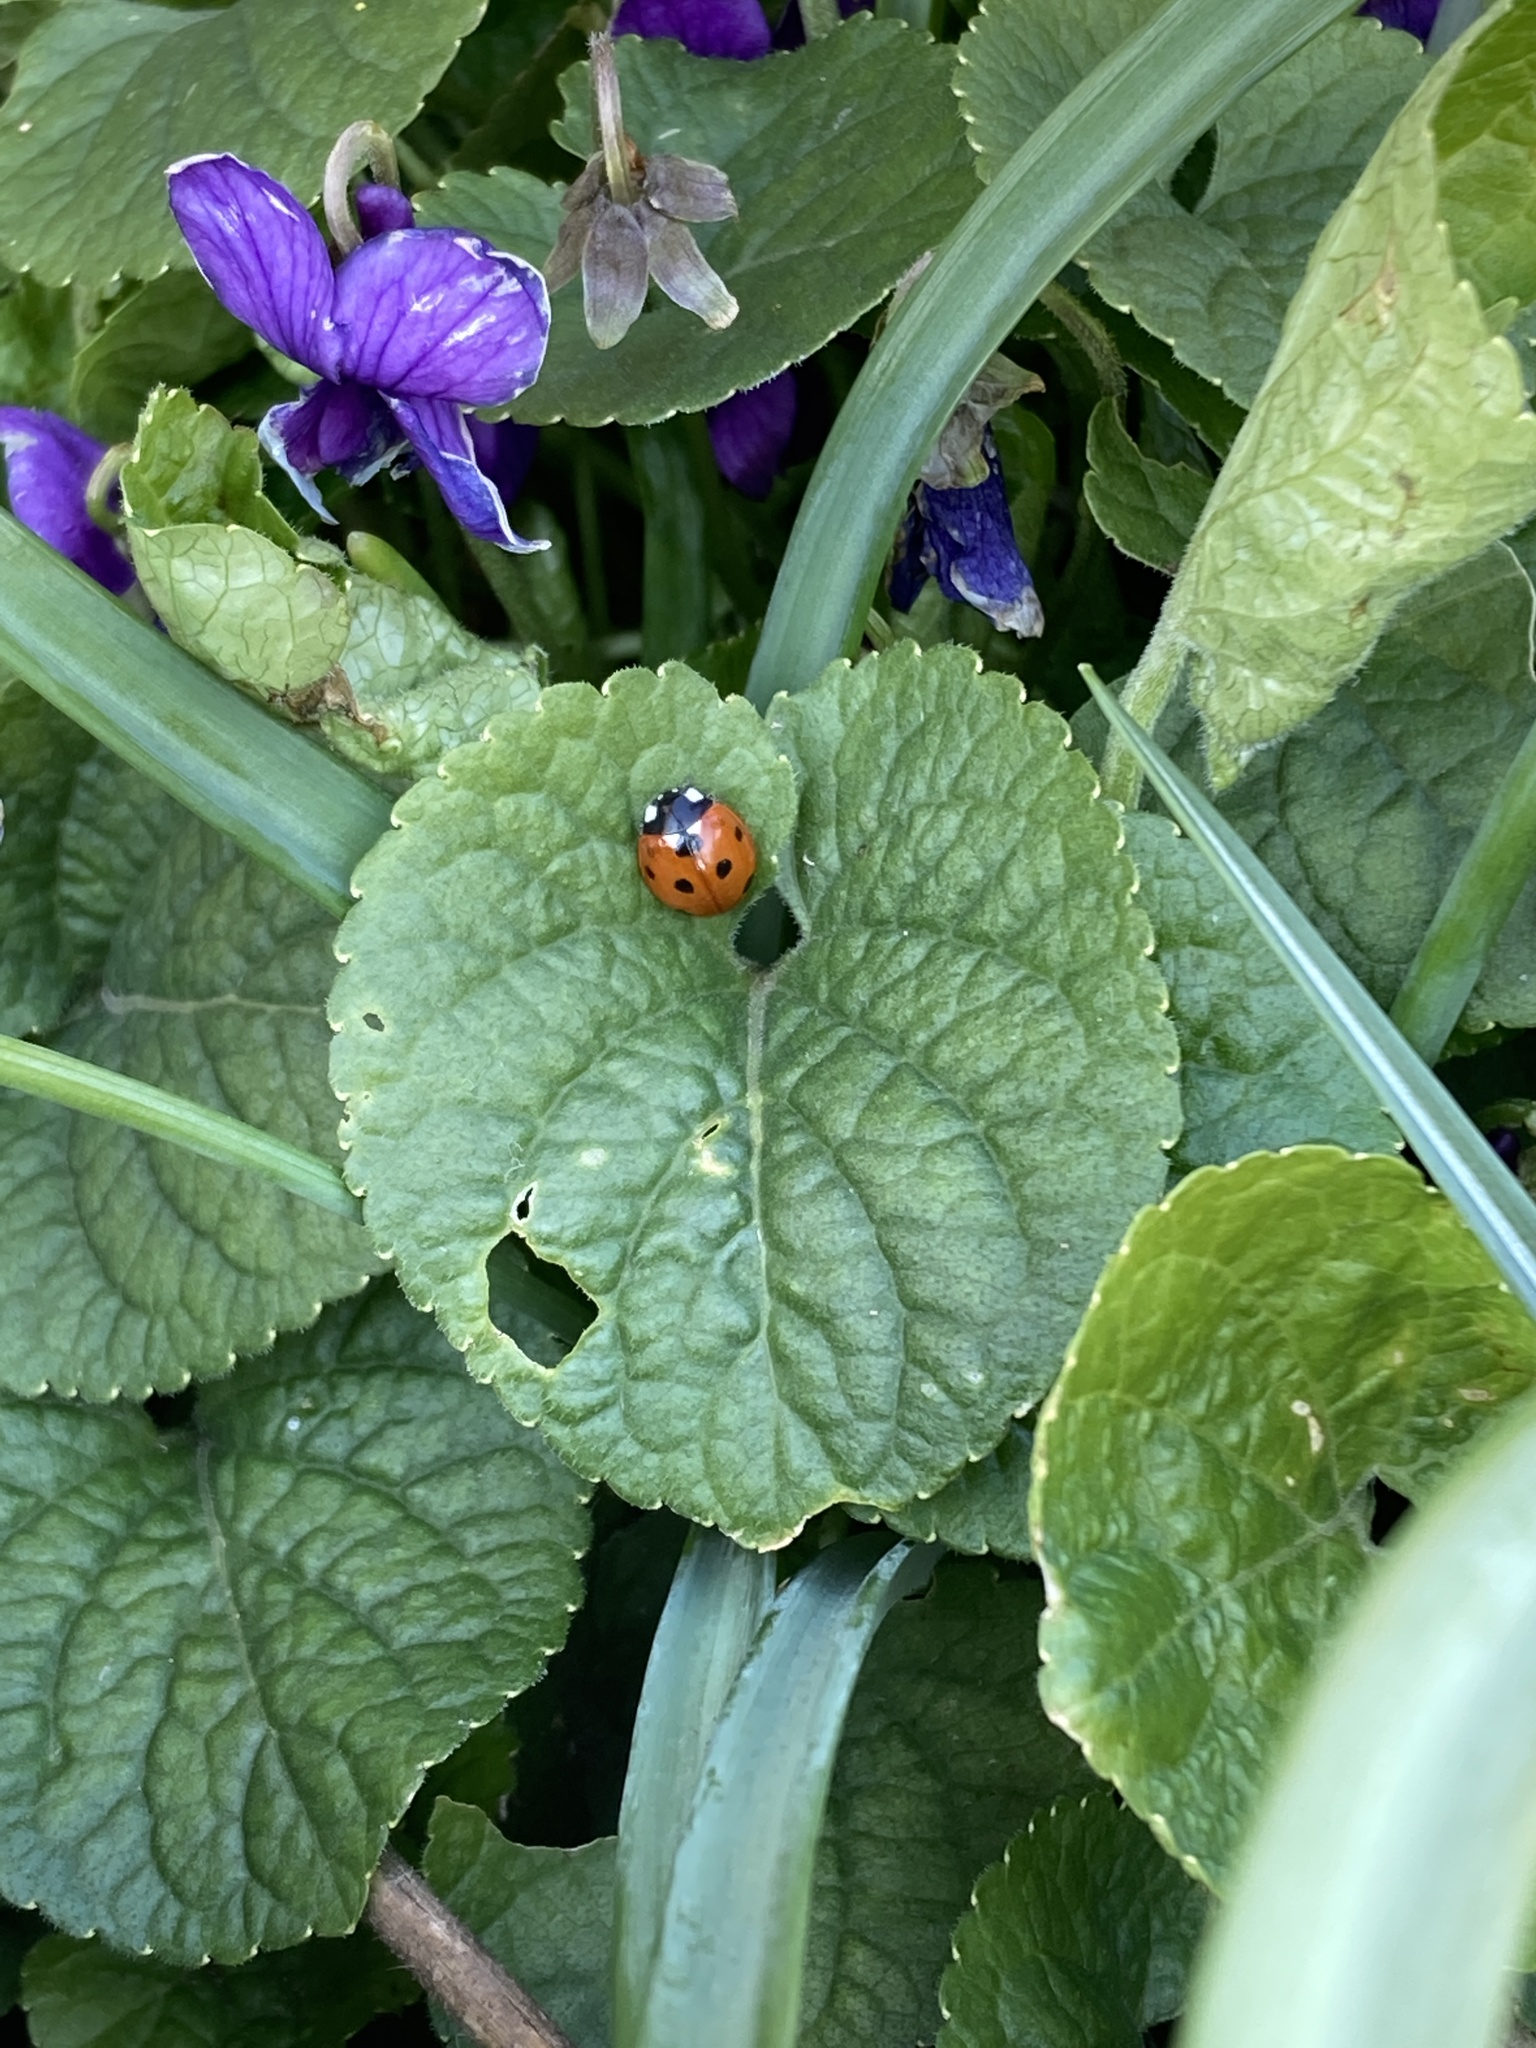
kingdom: Animalia
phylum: Arthropoda
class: Insecta
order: Coleoptera
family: Coccinellidae
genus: Coccinella
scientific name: Coccinella septempunctata
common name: Sevenspotted lady beetle
